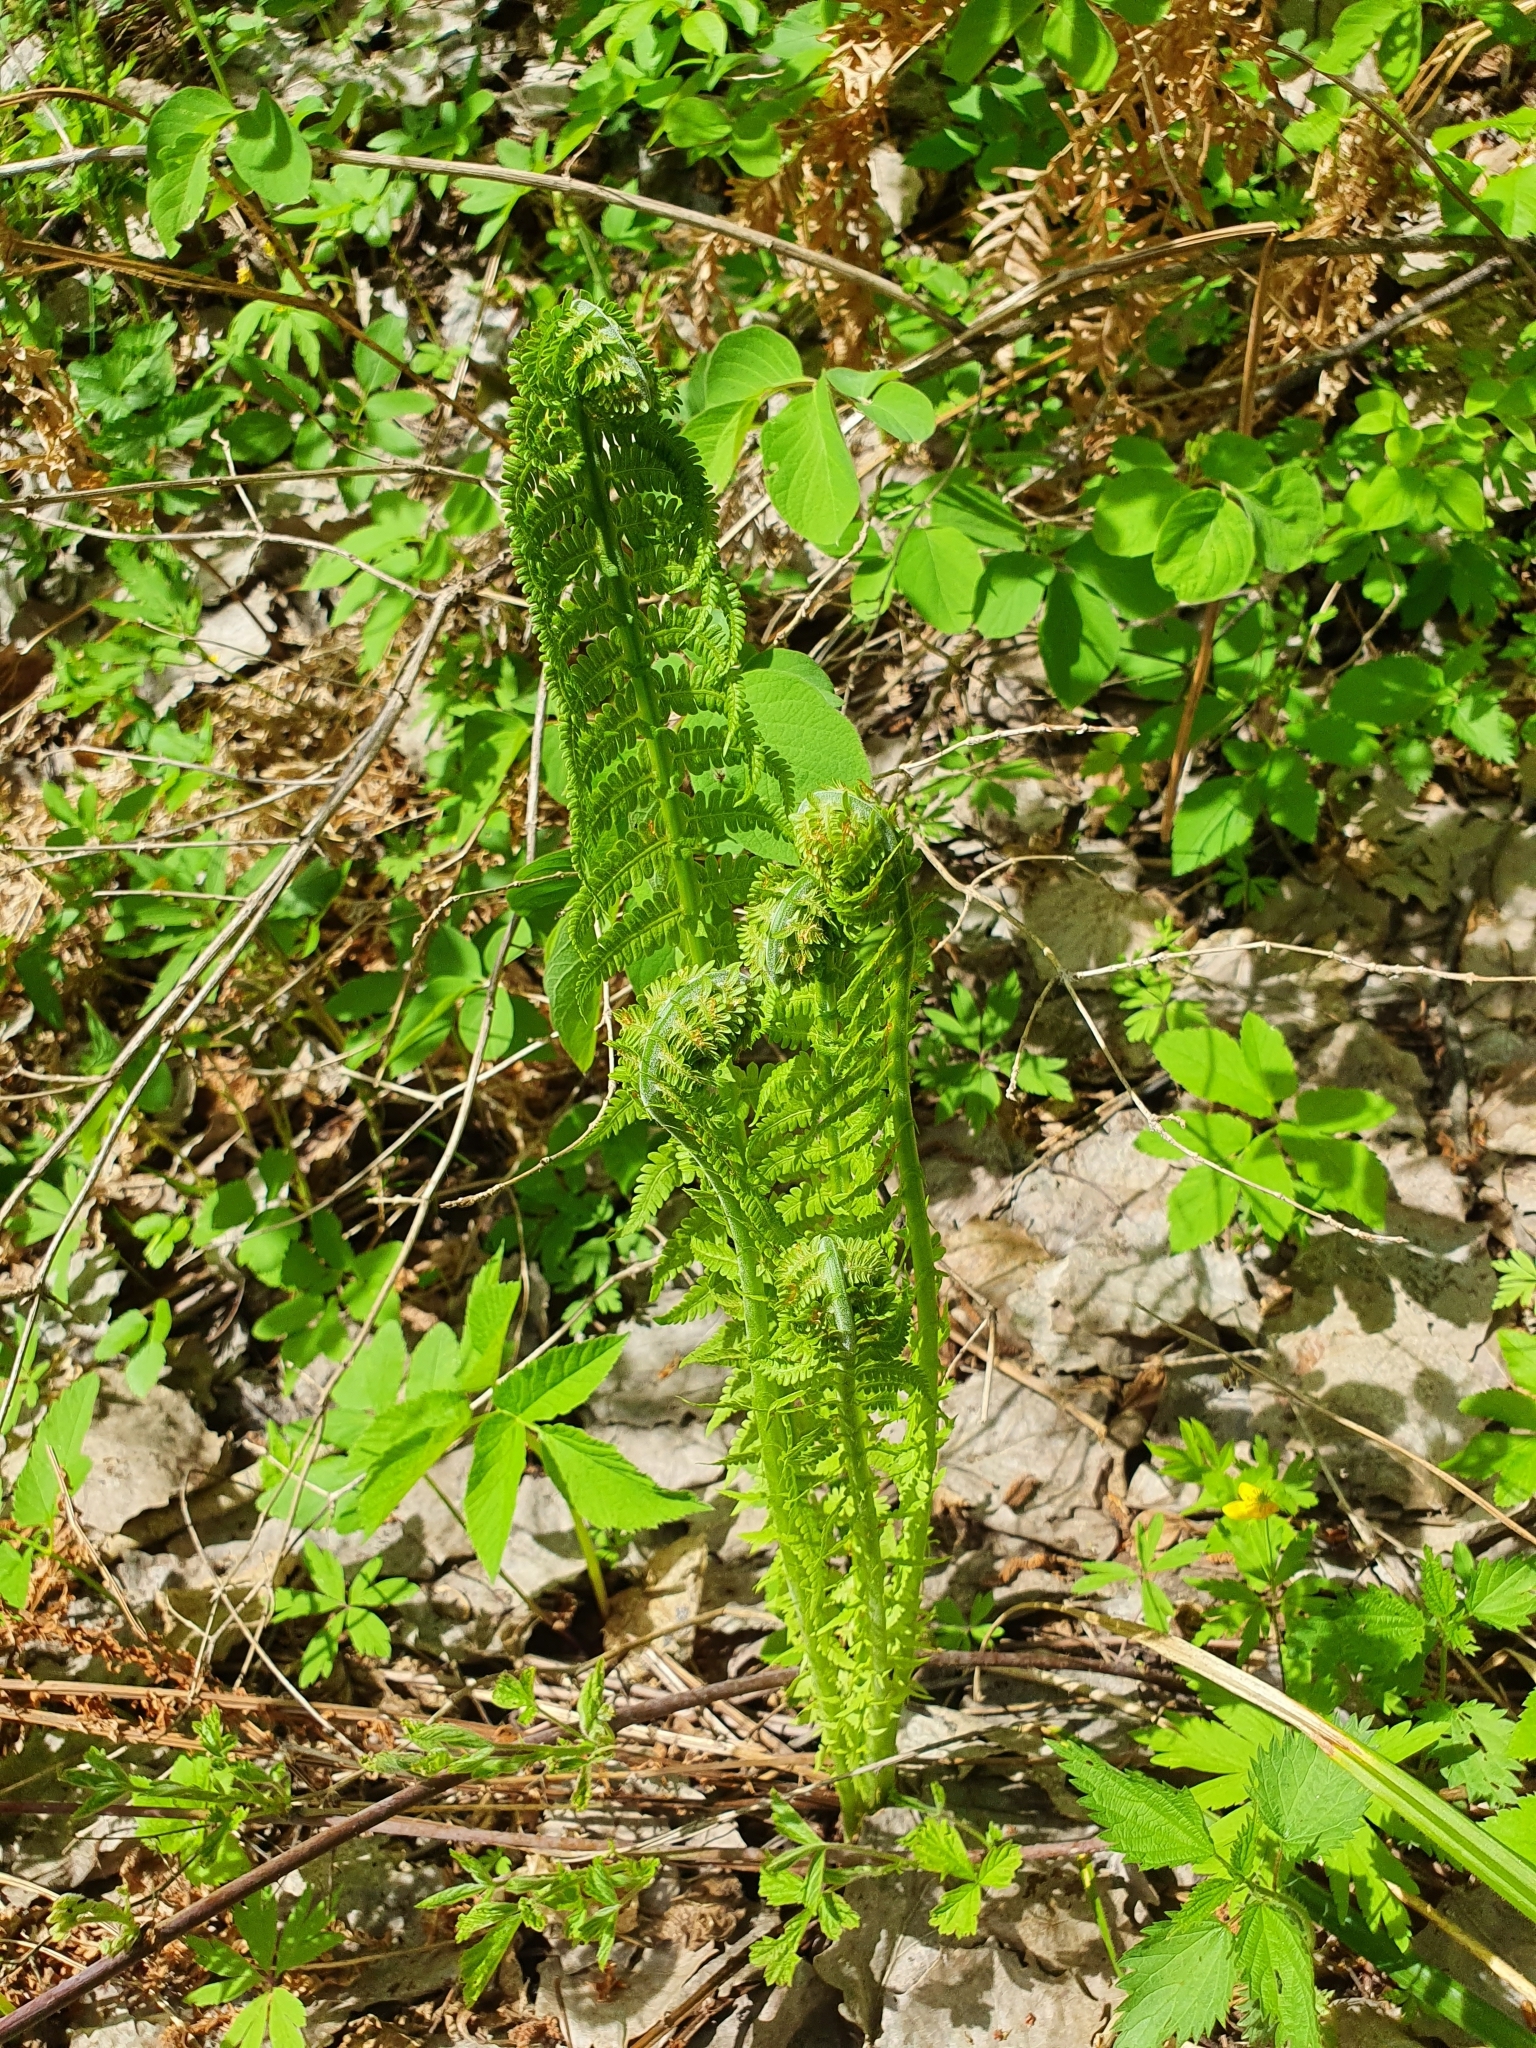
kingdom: Plantae
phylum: Tracheophyta
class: Polypodiopsida
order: Polypodiales
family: Onocleaceae
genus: Matteuccia
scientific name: Matteuccia struthiopteris
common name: Ostrich fern
